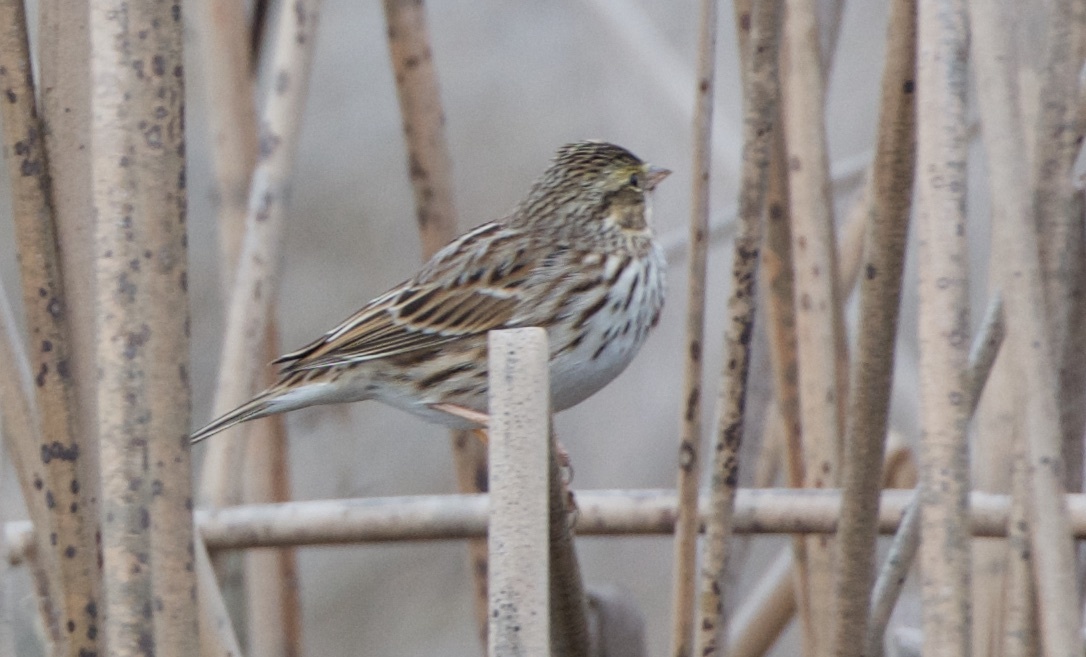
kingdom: Animalia
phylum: Chordata
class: Aves
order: Passeriformes
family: Passerellidae
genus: Passerculus
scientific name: Passerculus sandwichensis
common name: Savannah sparrow
